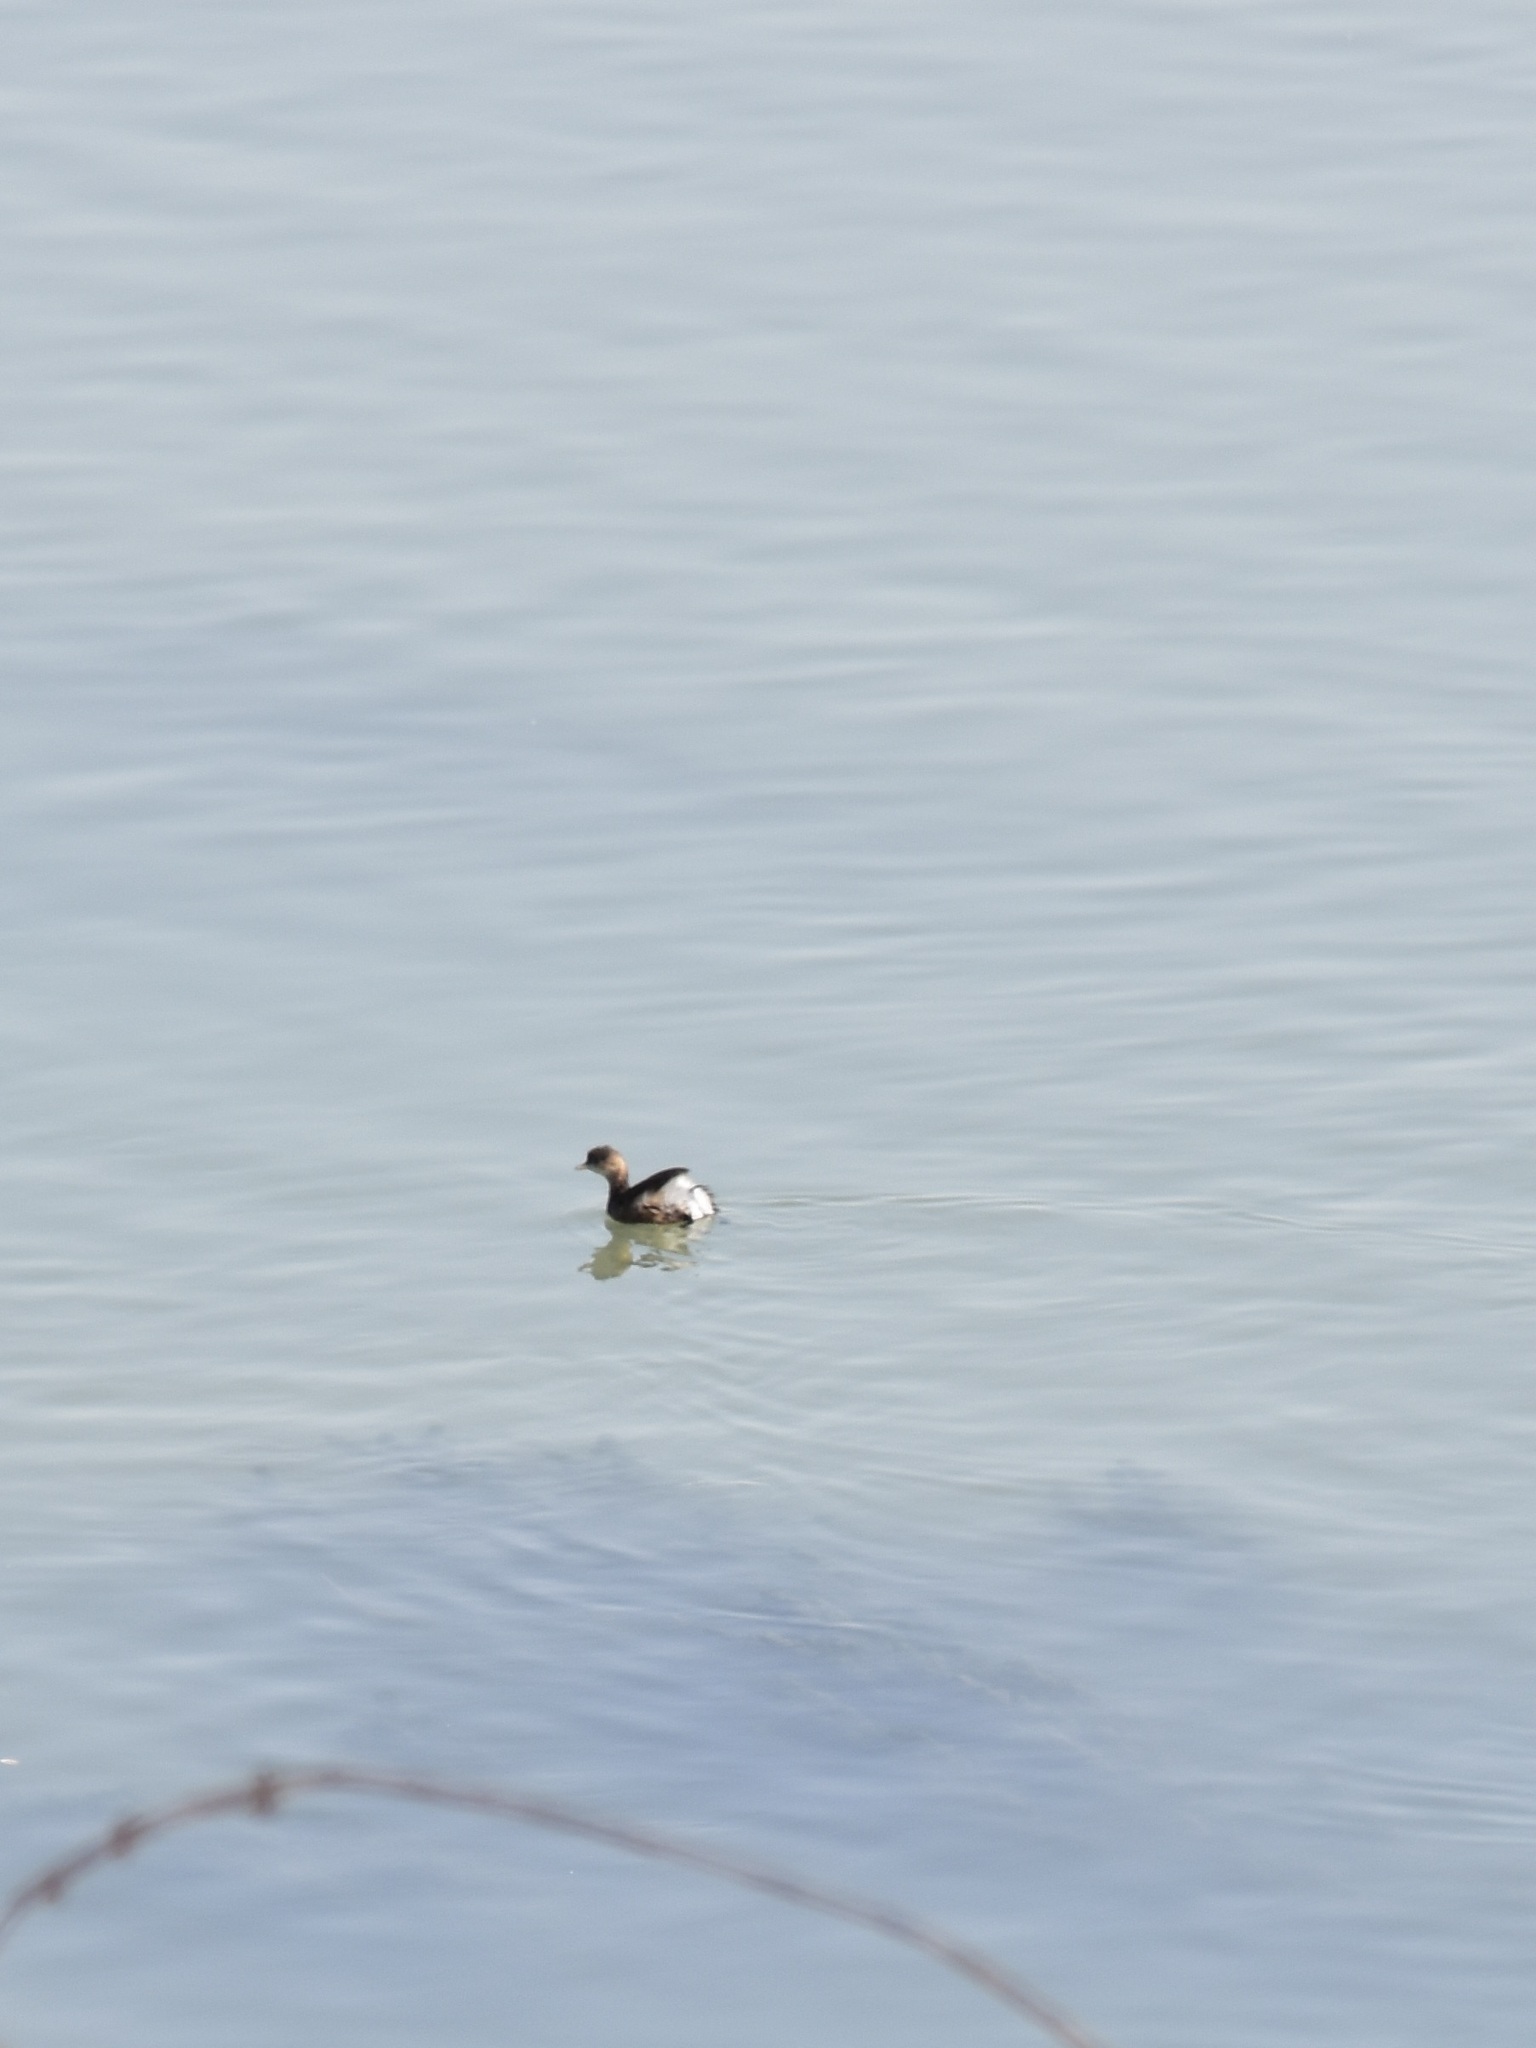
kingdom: Animalia
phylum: Chordata
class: Aves
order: Podicipediformes
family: Podicipedidae
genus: Tachybaptus
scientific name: Tachybaptus ruficollis
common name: Little grebe
